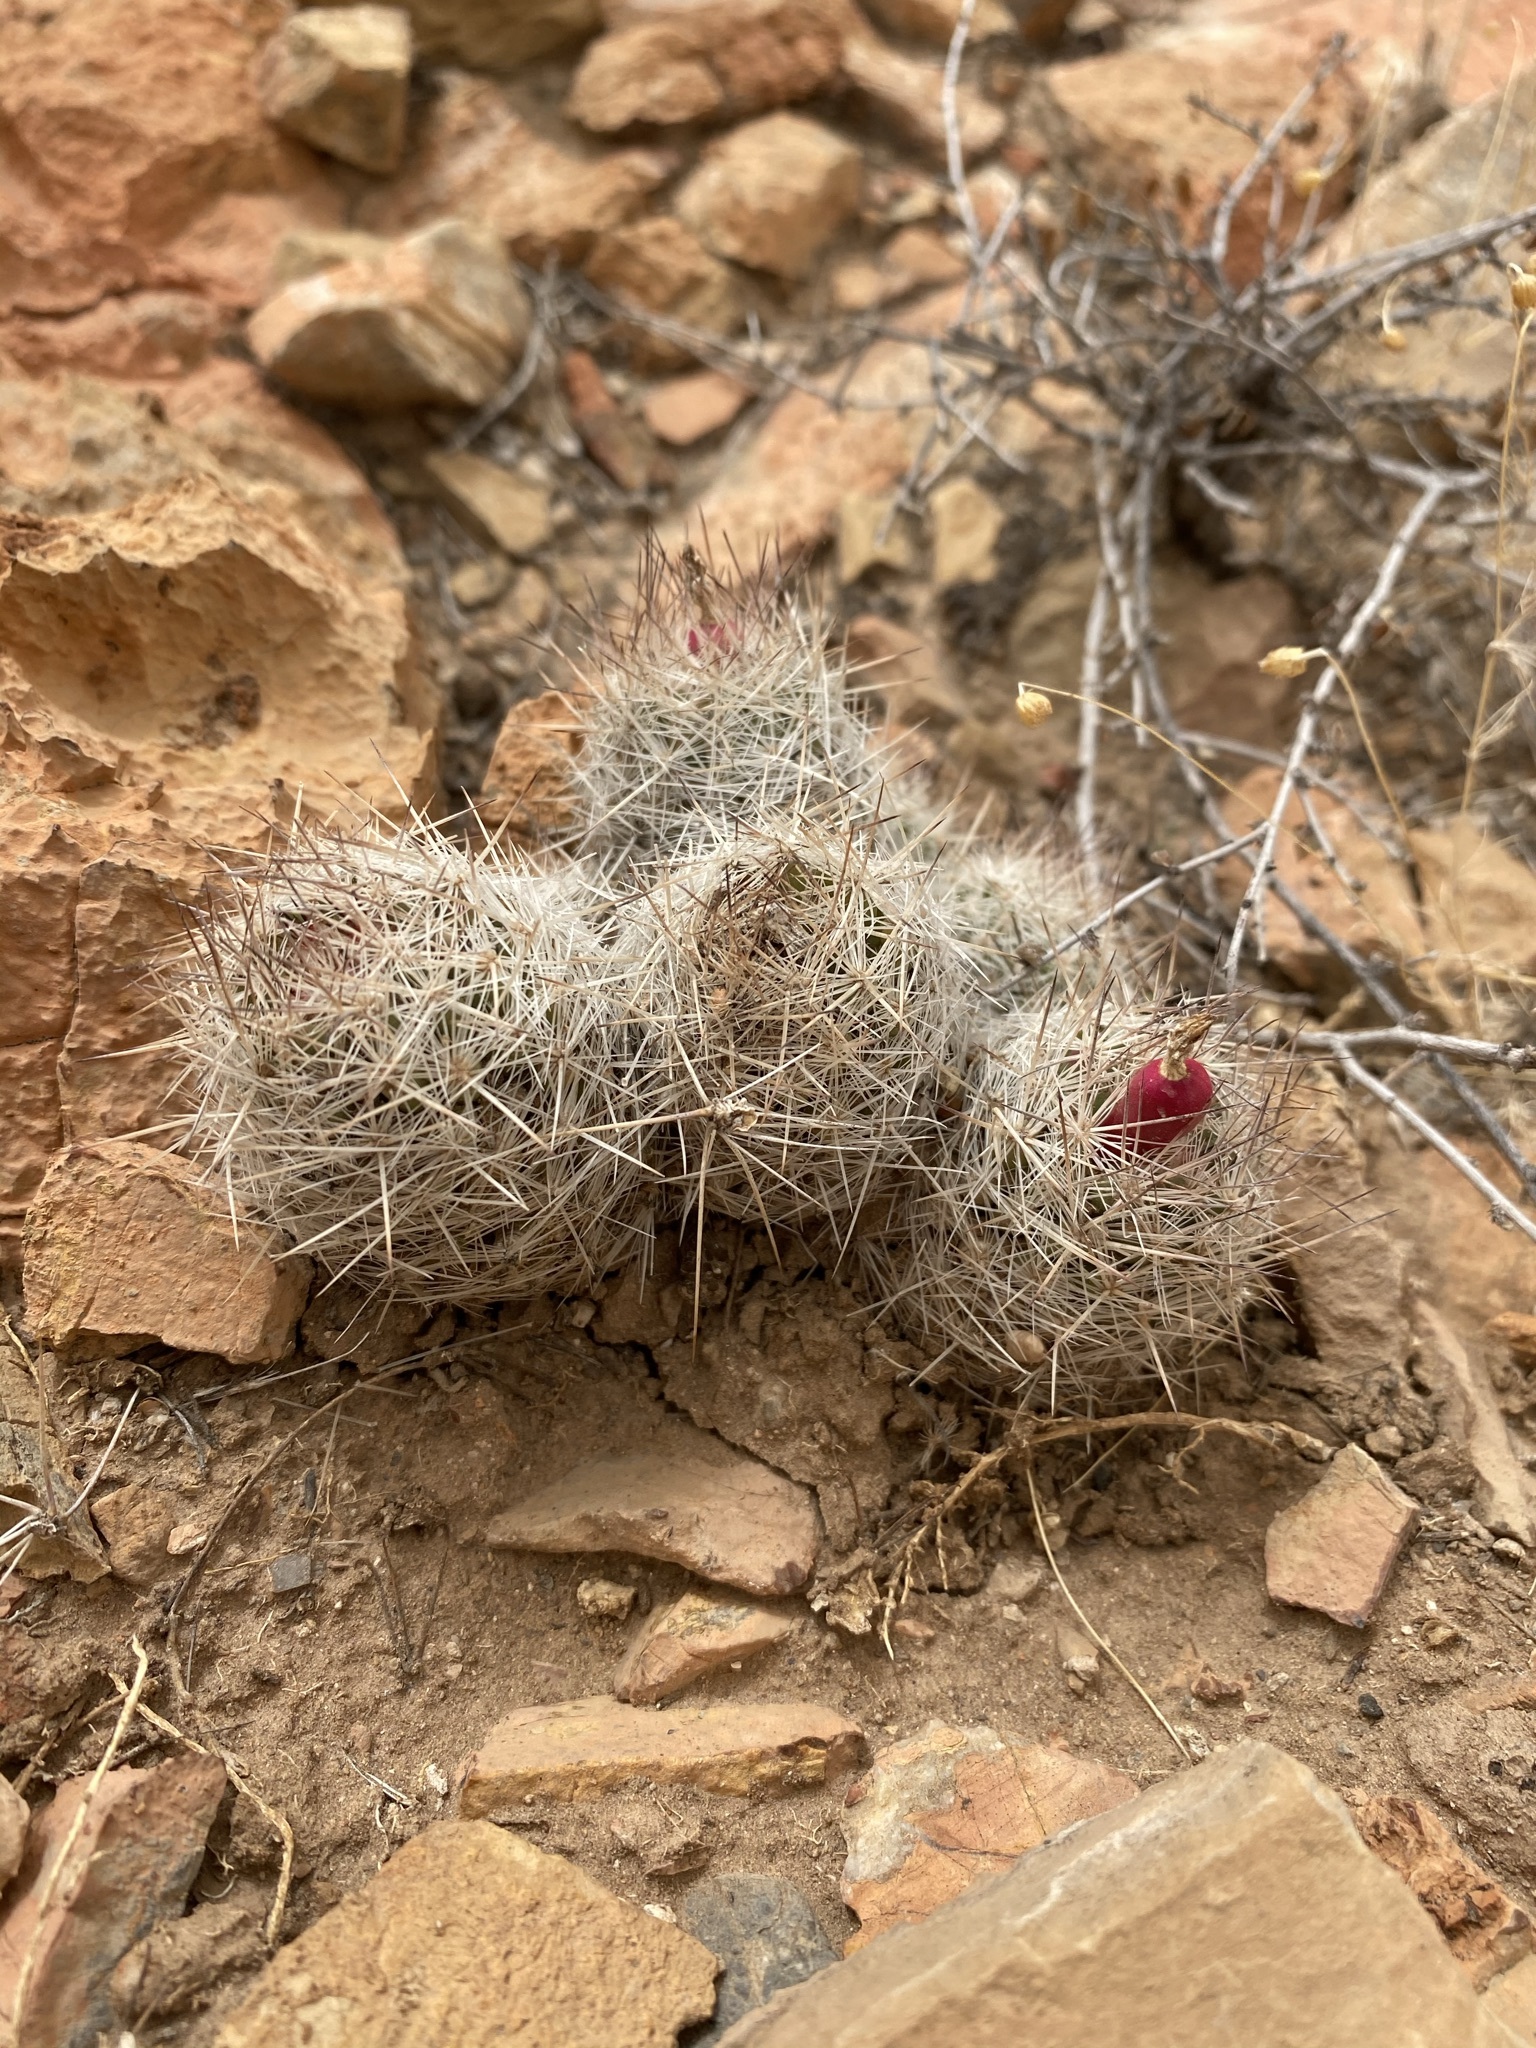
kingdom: Plantae
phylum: Tracheophyta
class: Magnoliopsida
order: Caryophyllales
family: Cactaceae
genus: Pelecyphora
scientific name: Pelecyphora tuberculosa
